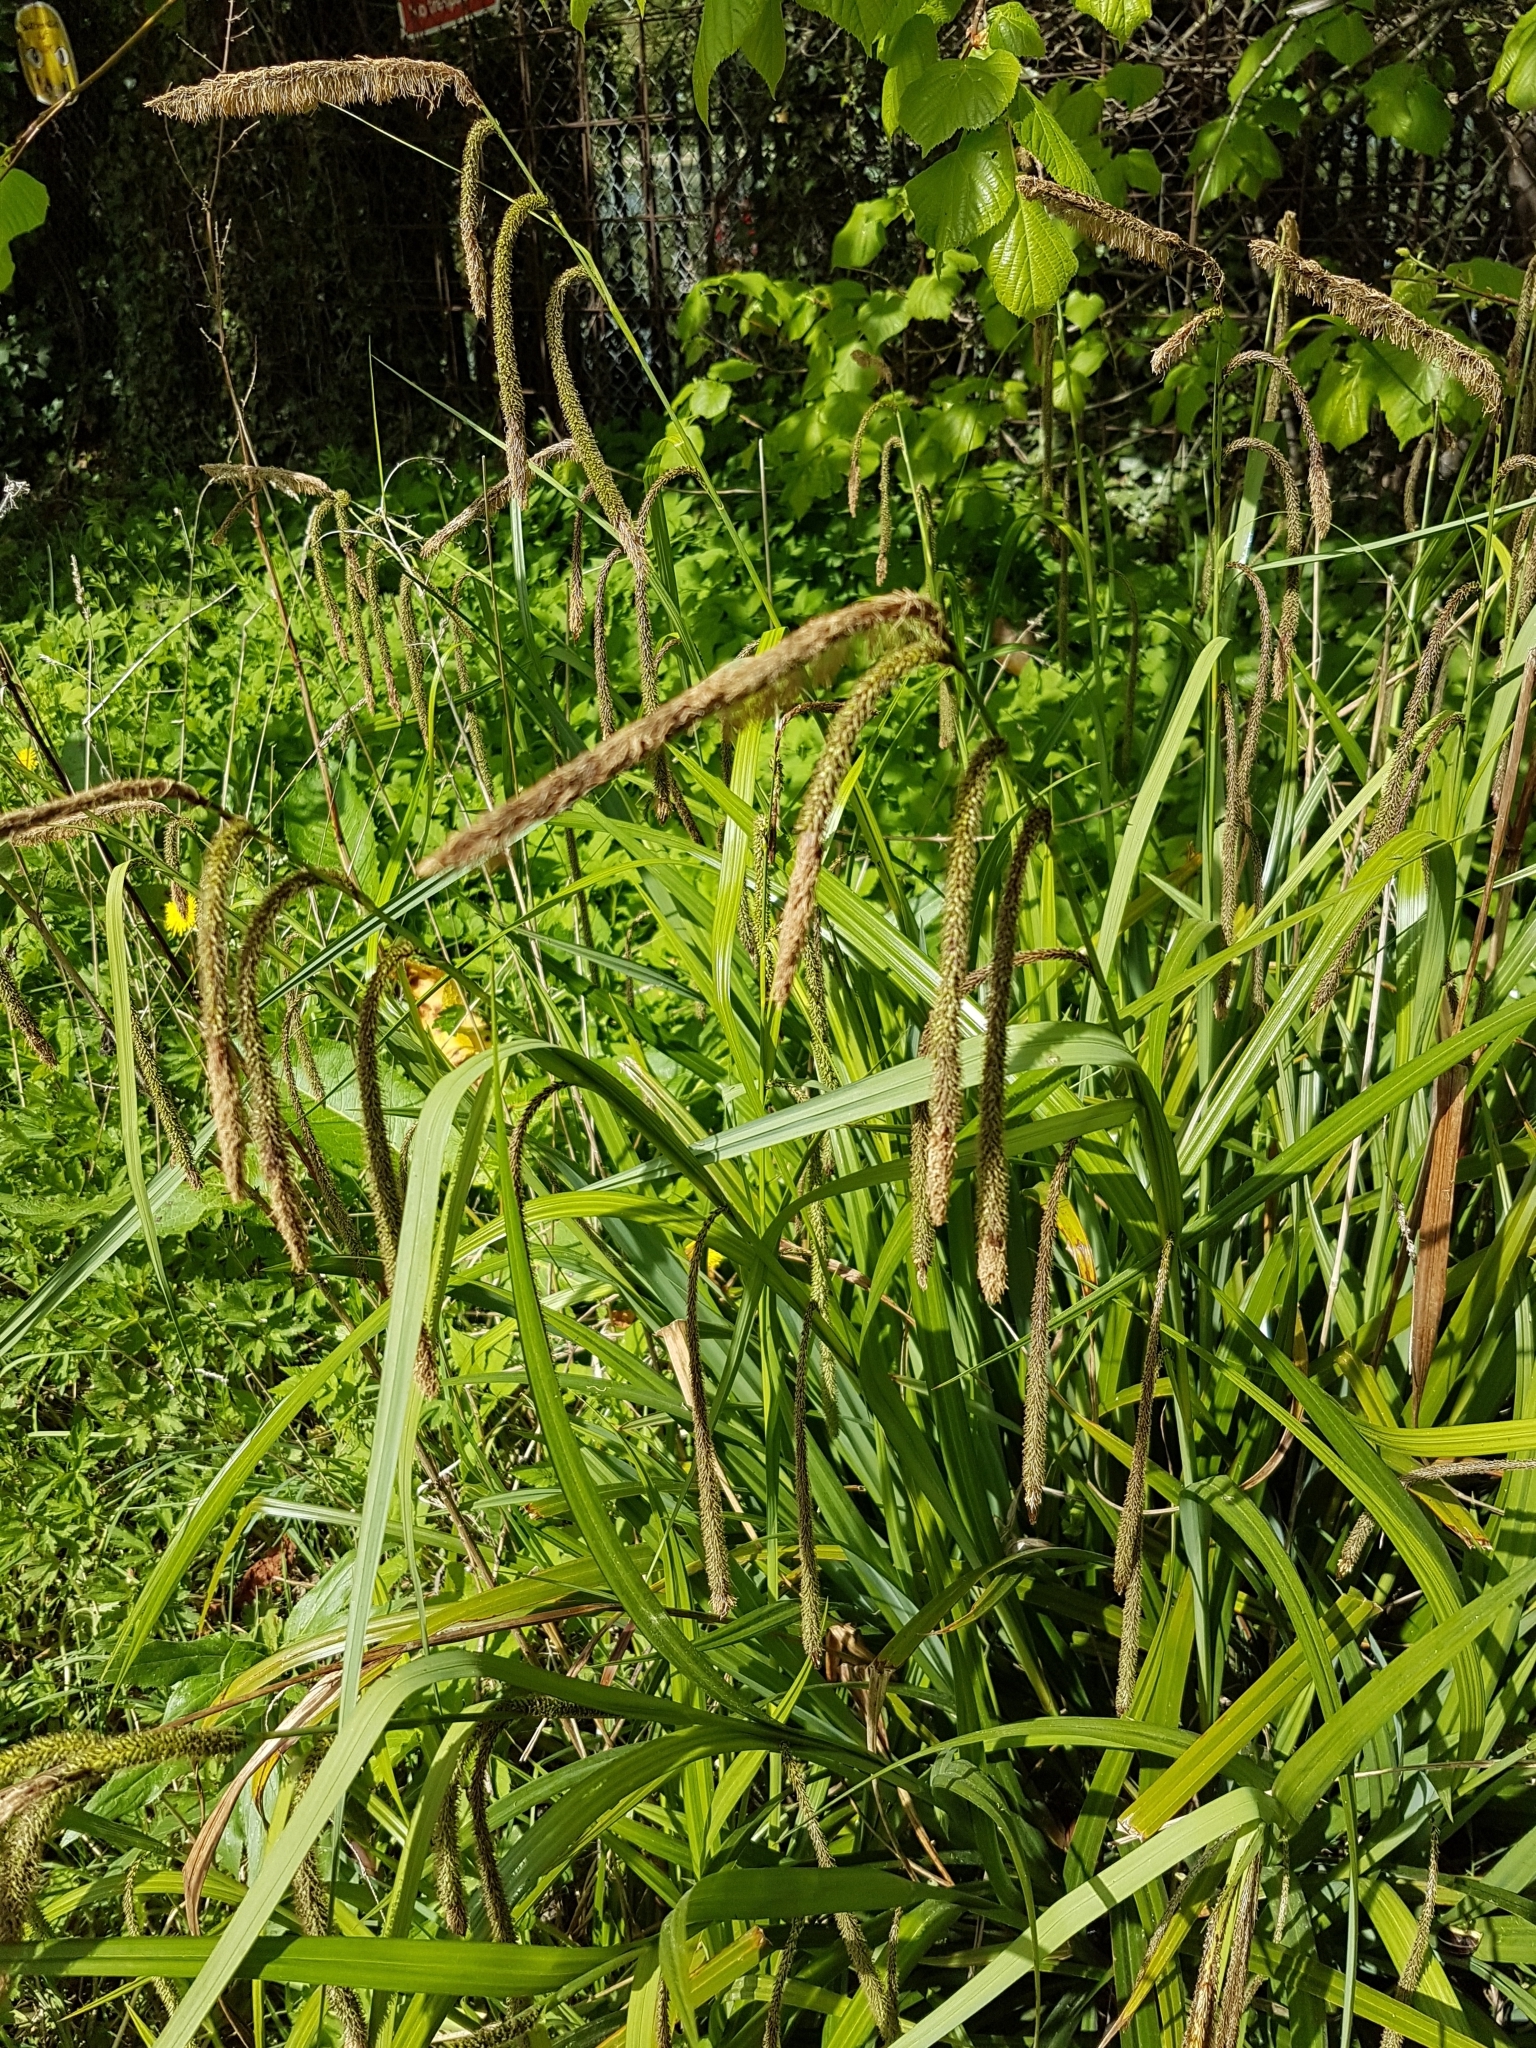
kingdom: Plantae
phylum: Tracheophyta
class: Liliopsida
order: Poales
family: Cyperaceae
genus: Carex
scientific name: Carex pendula
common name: Pendulous sedge
